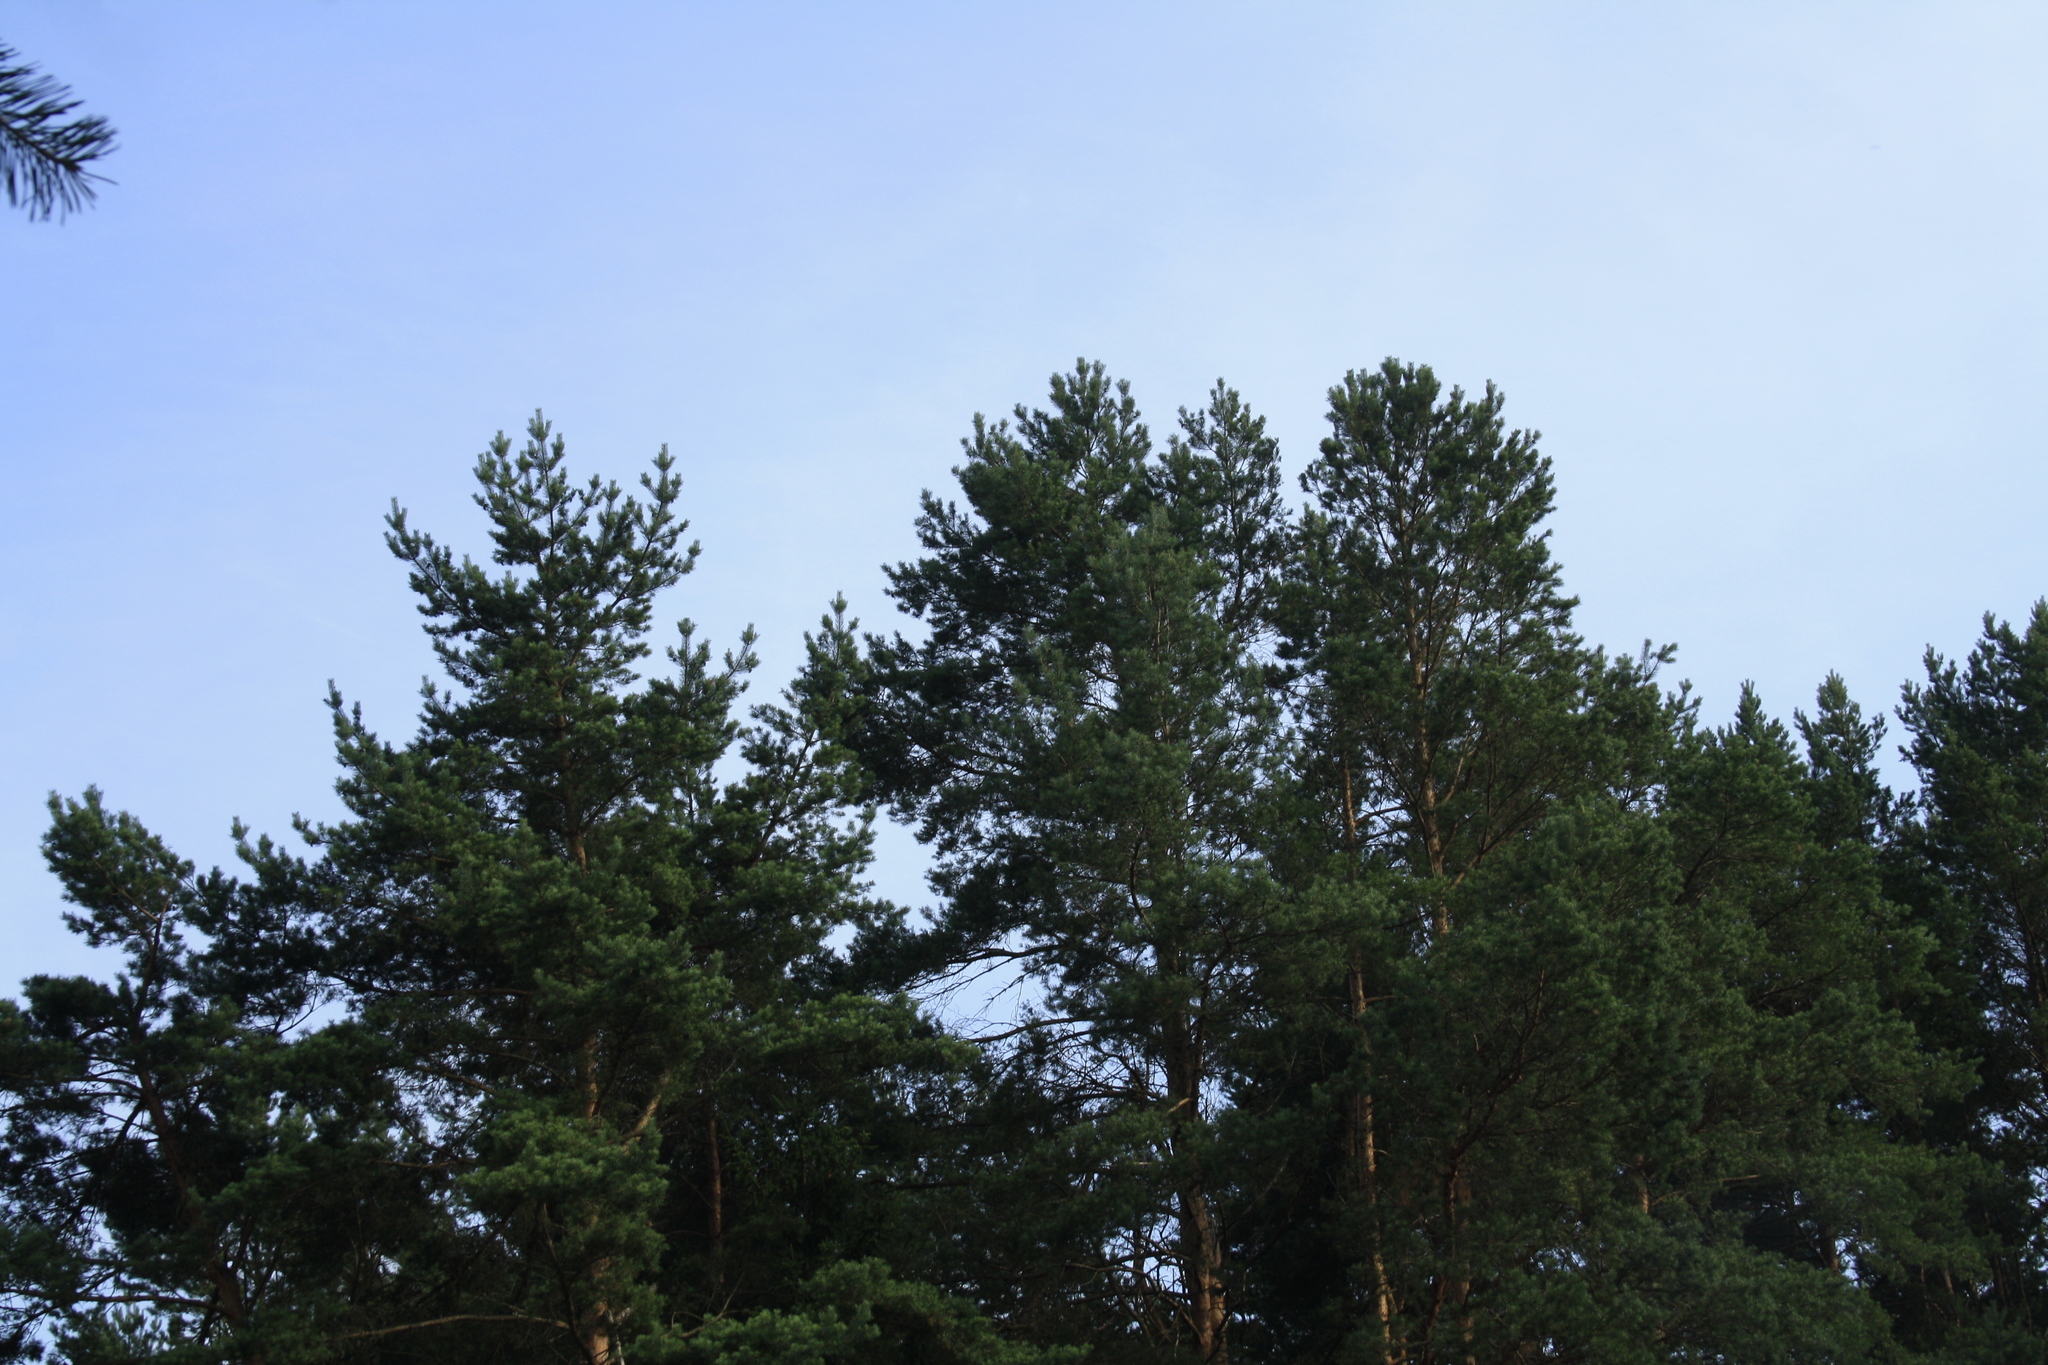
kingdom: Plantae
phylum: Tracheophyta
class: Pinopsida
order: Pinales
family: Pinaceae
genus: Pinus
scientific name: Pinus sylvestris
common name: Scots pine
